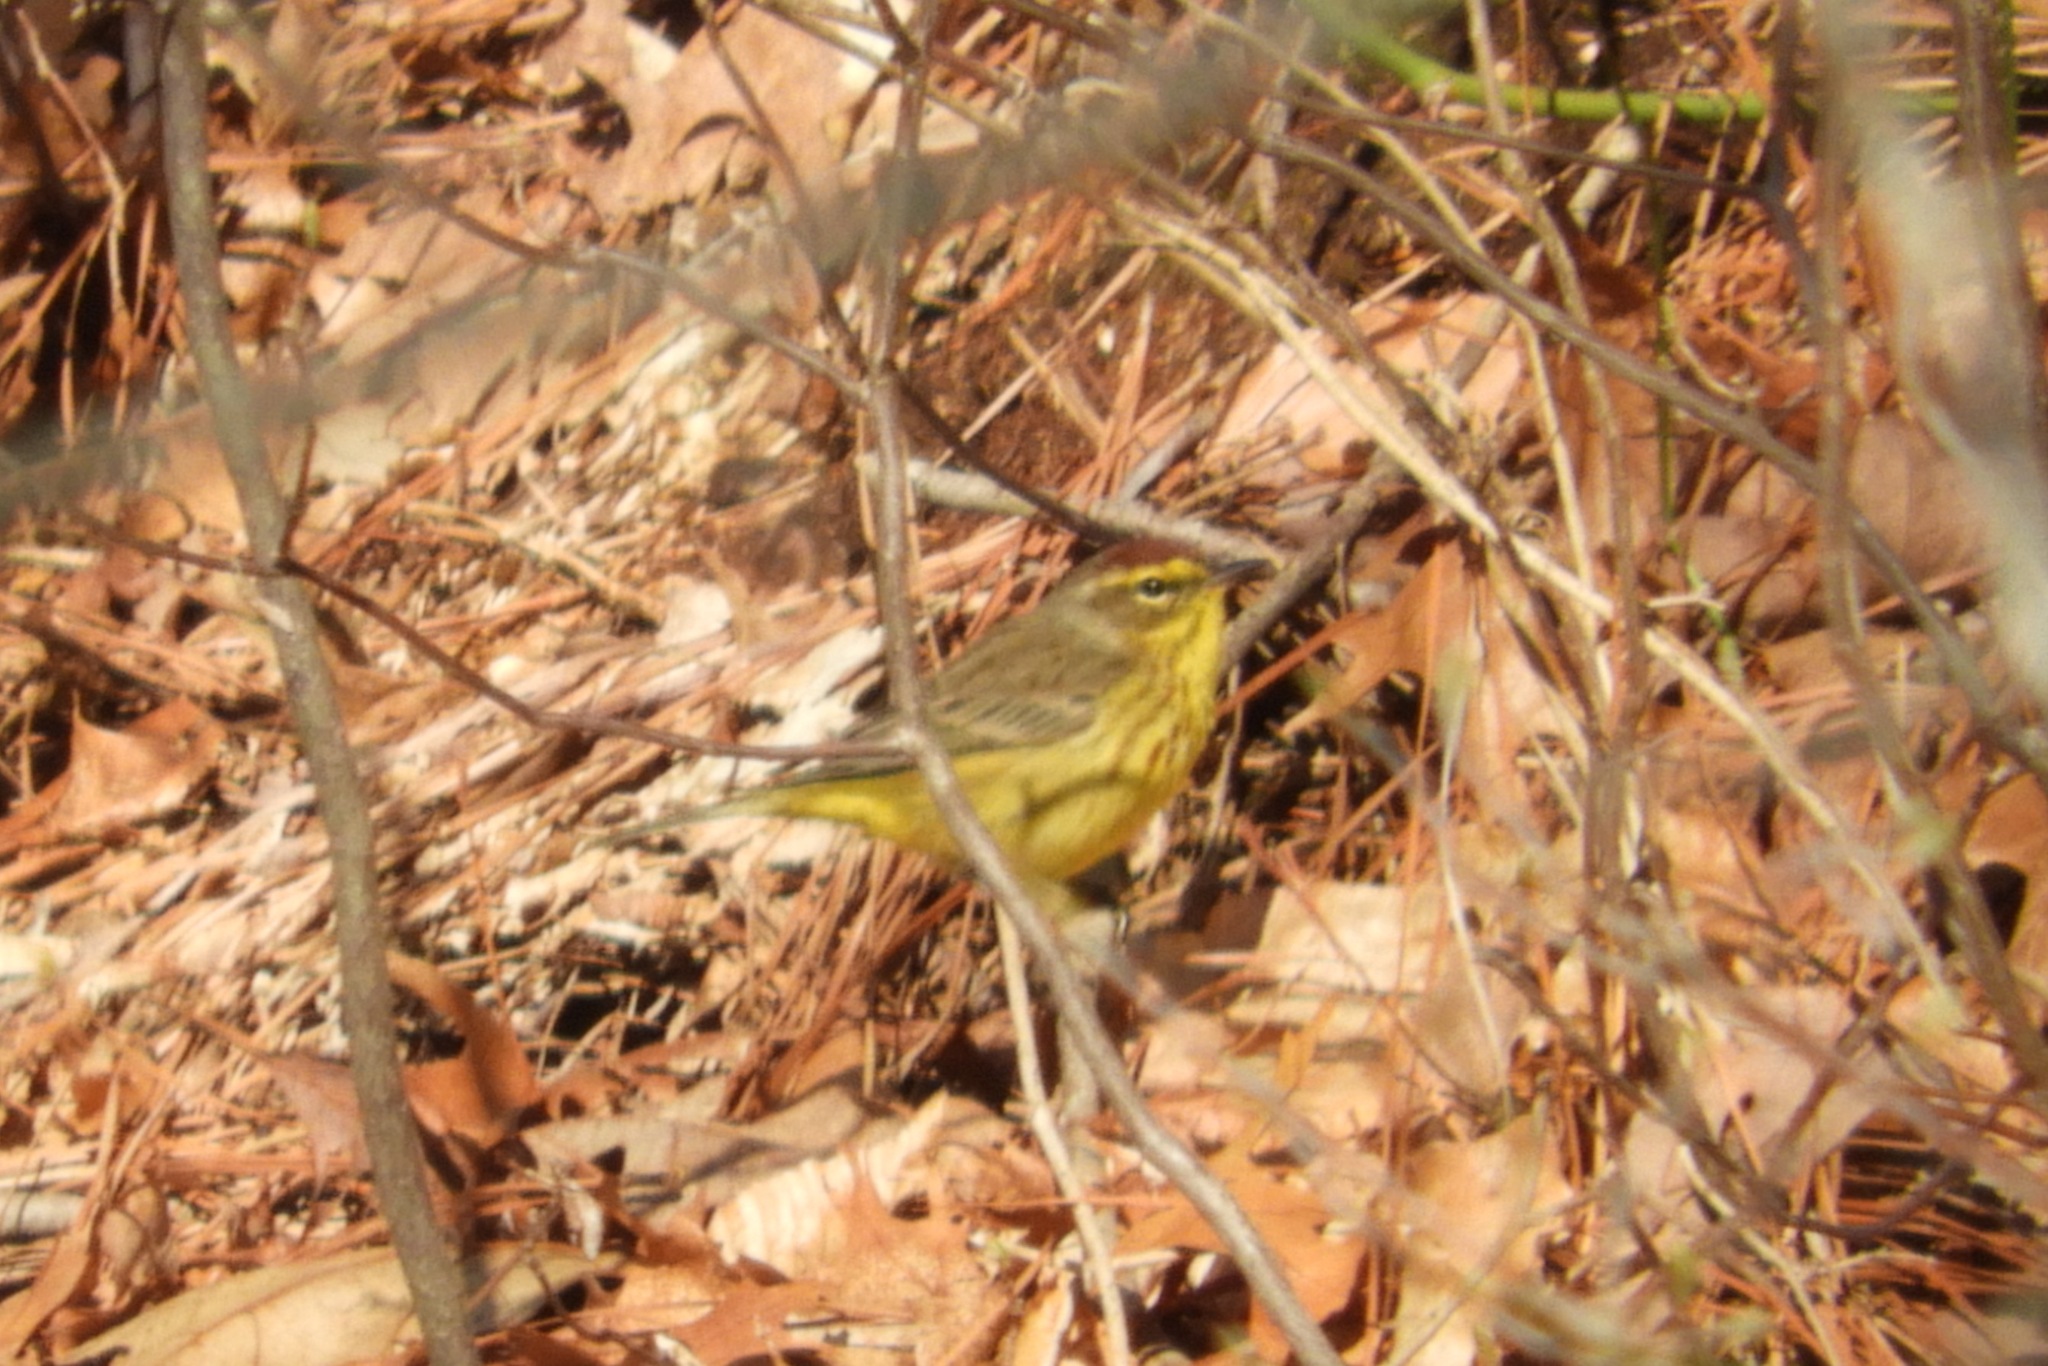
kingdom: Animalia
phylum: Chordata
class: Aves
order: Passeriformes
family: Parulidae
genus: Setophaga
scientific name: Setophaga palmarum
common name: Palm warbler
